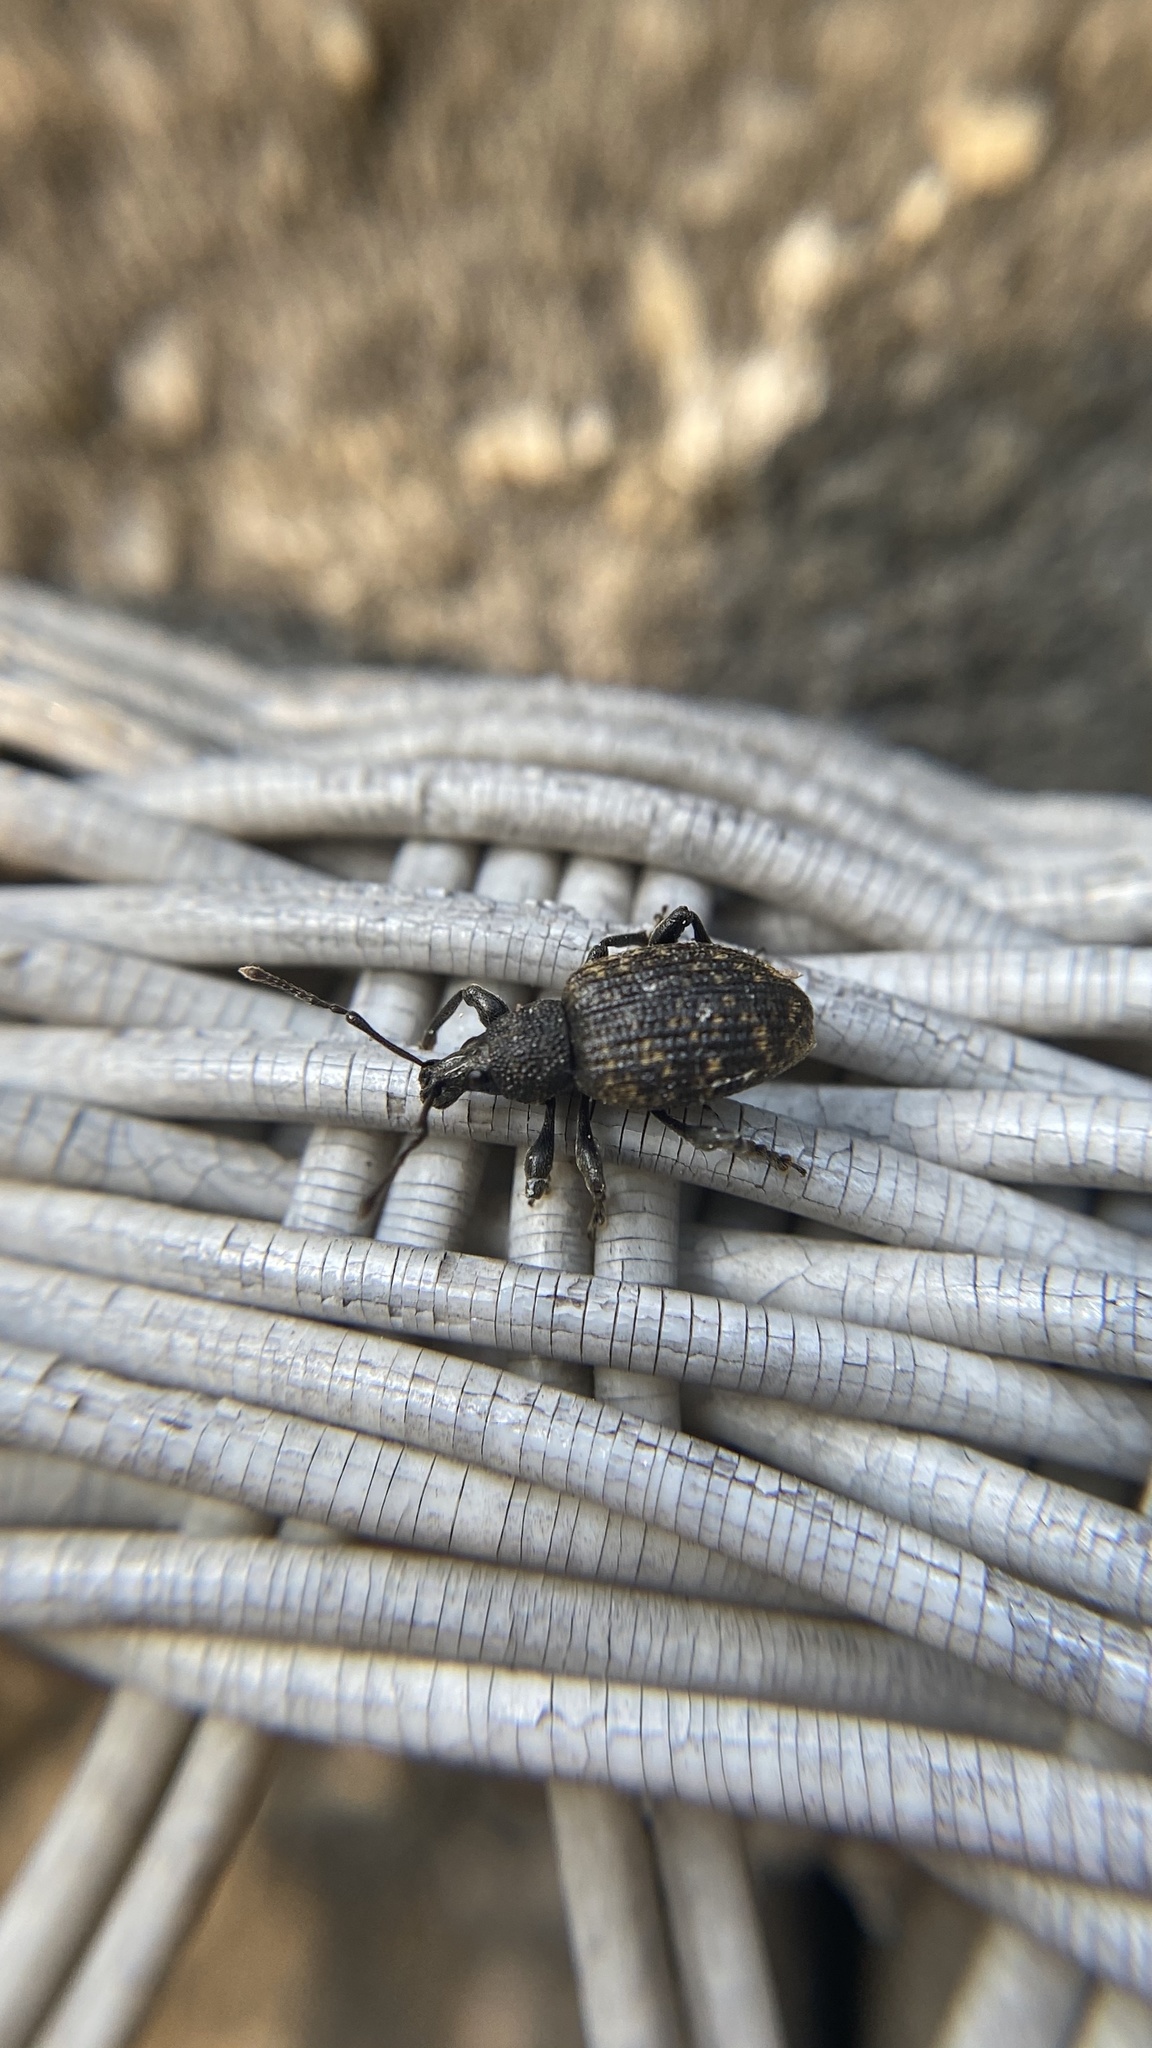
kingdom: Animalia
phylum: Arthropoda
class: Insecta
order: Coleoptera
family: Curculionidae
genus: Otiorhynchus
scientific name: Otiorhynchus sulcatus
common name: Black vine weevil
